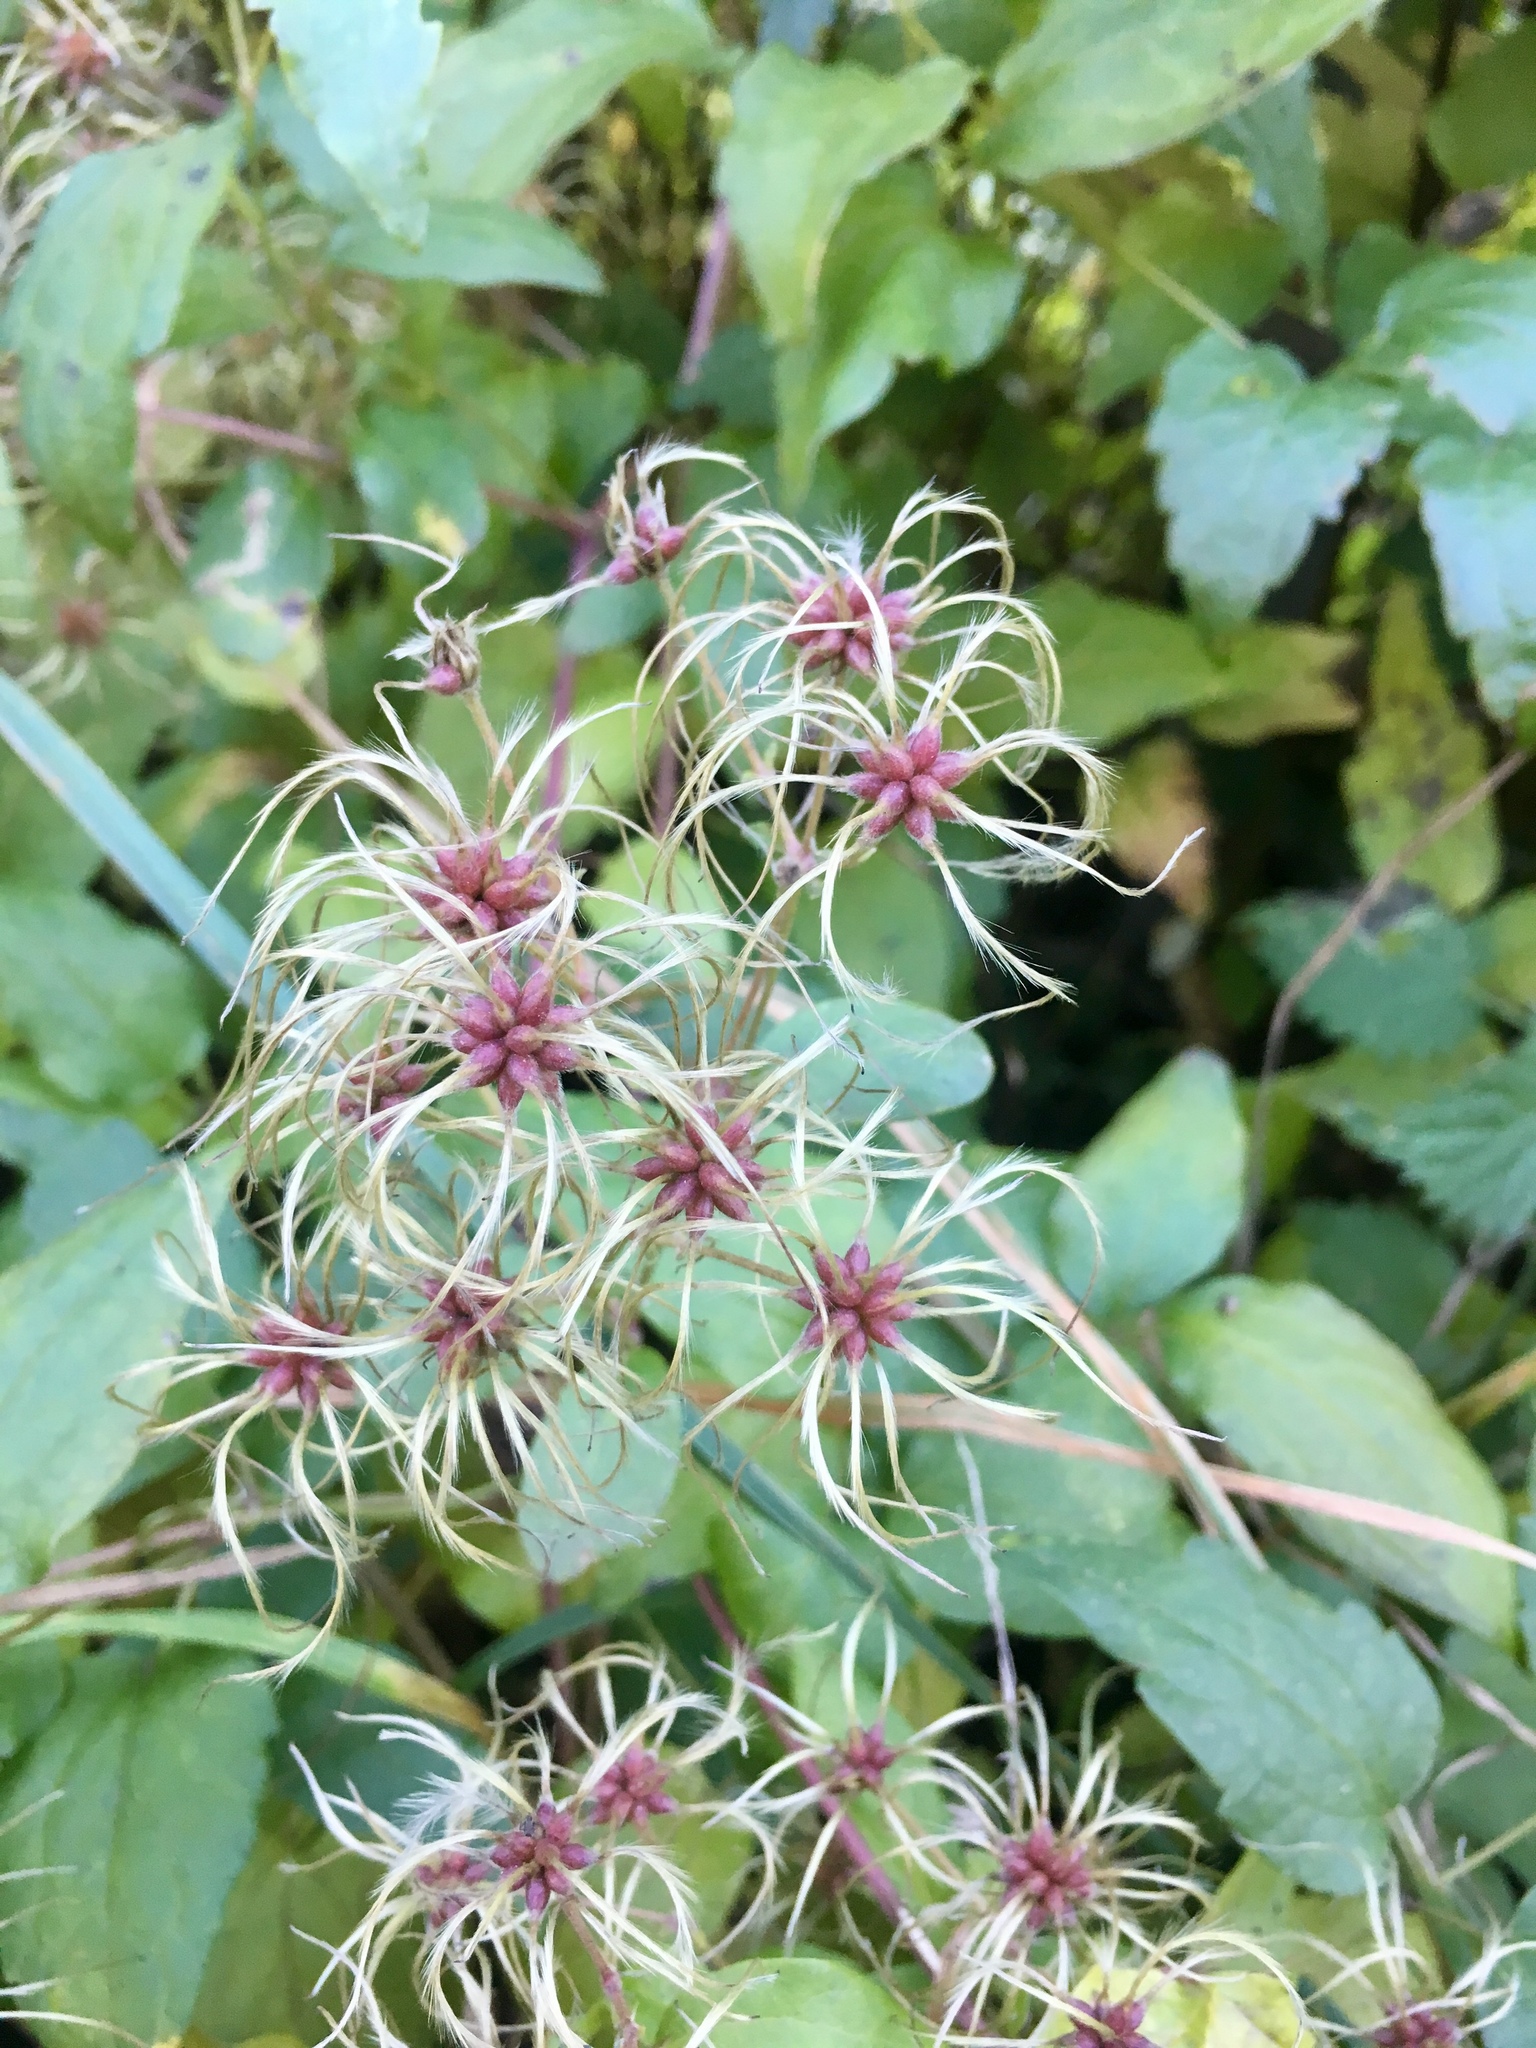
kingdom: Plantae
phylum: Tracheophyta
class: Magnoliopsida
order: Ranunculales
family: Ranunculaceae
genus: Clematis
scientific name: Clematis vitalba
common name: Evergreen clematis
